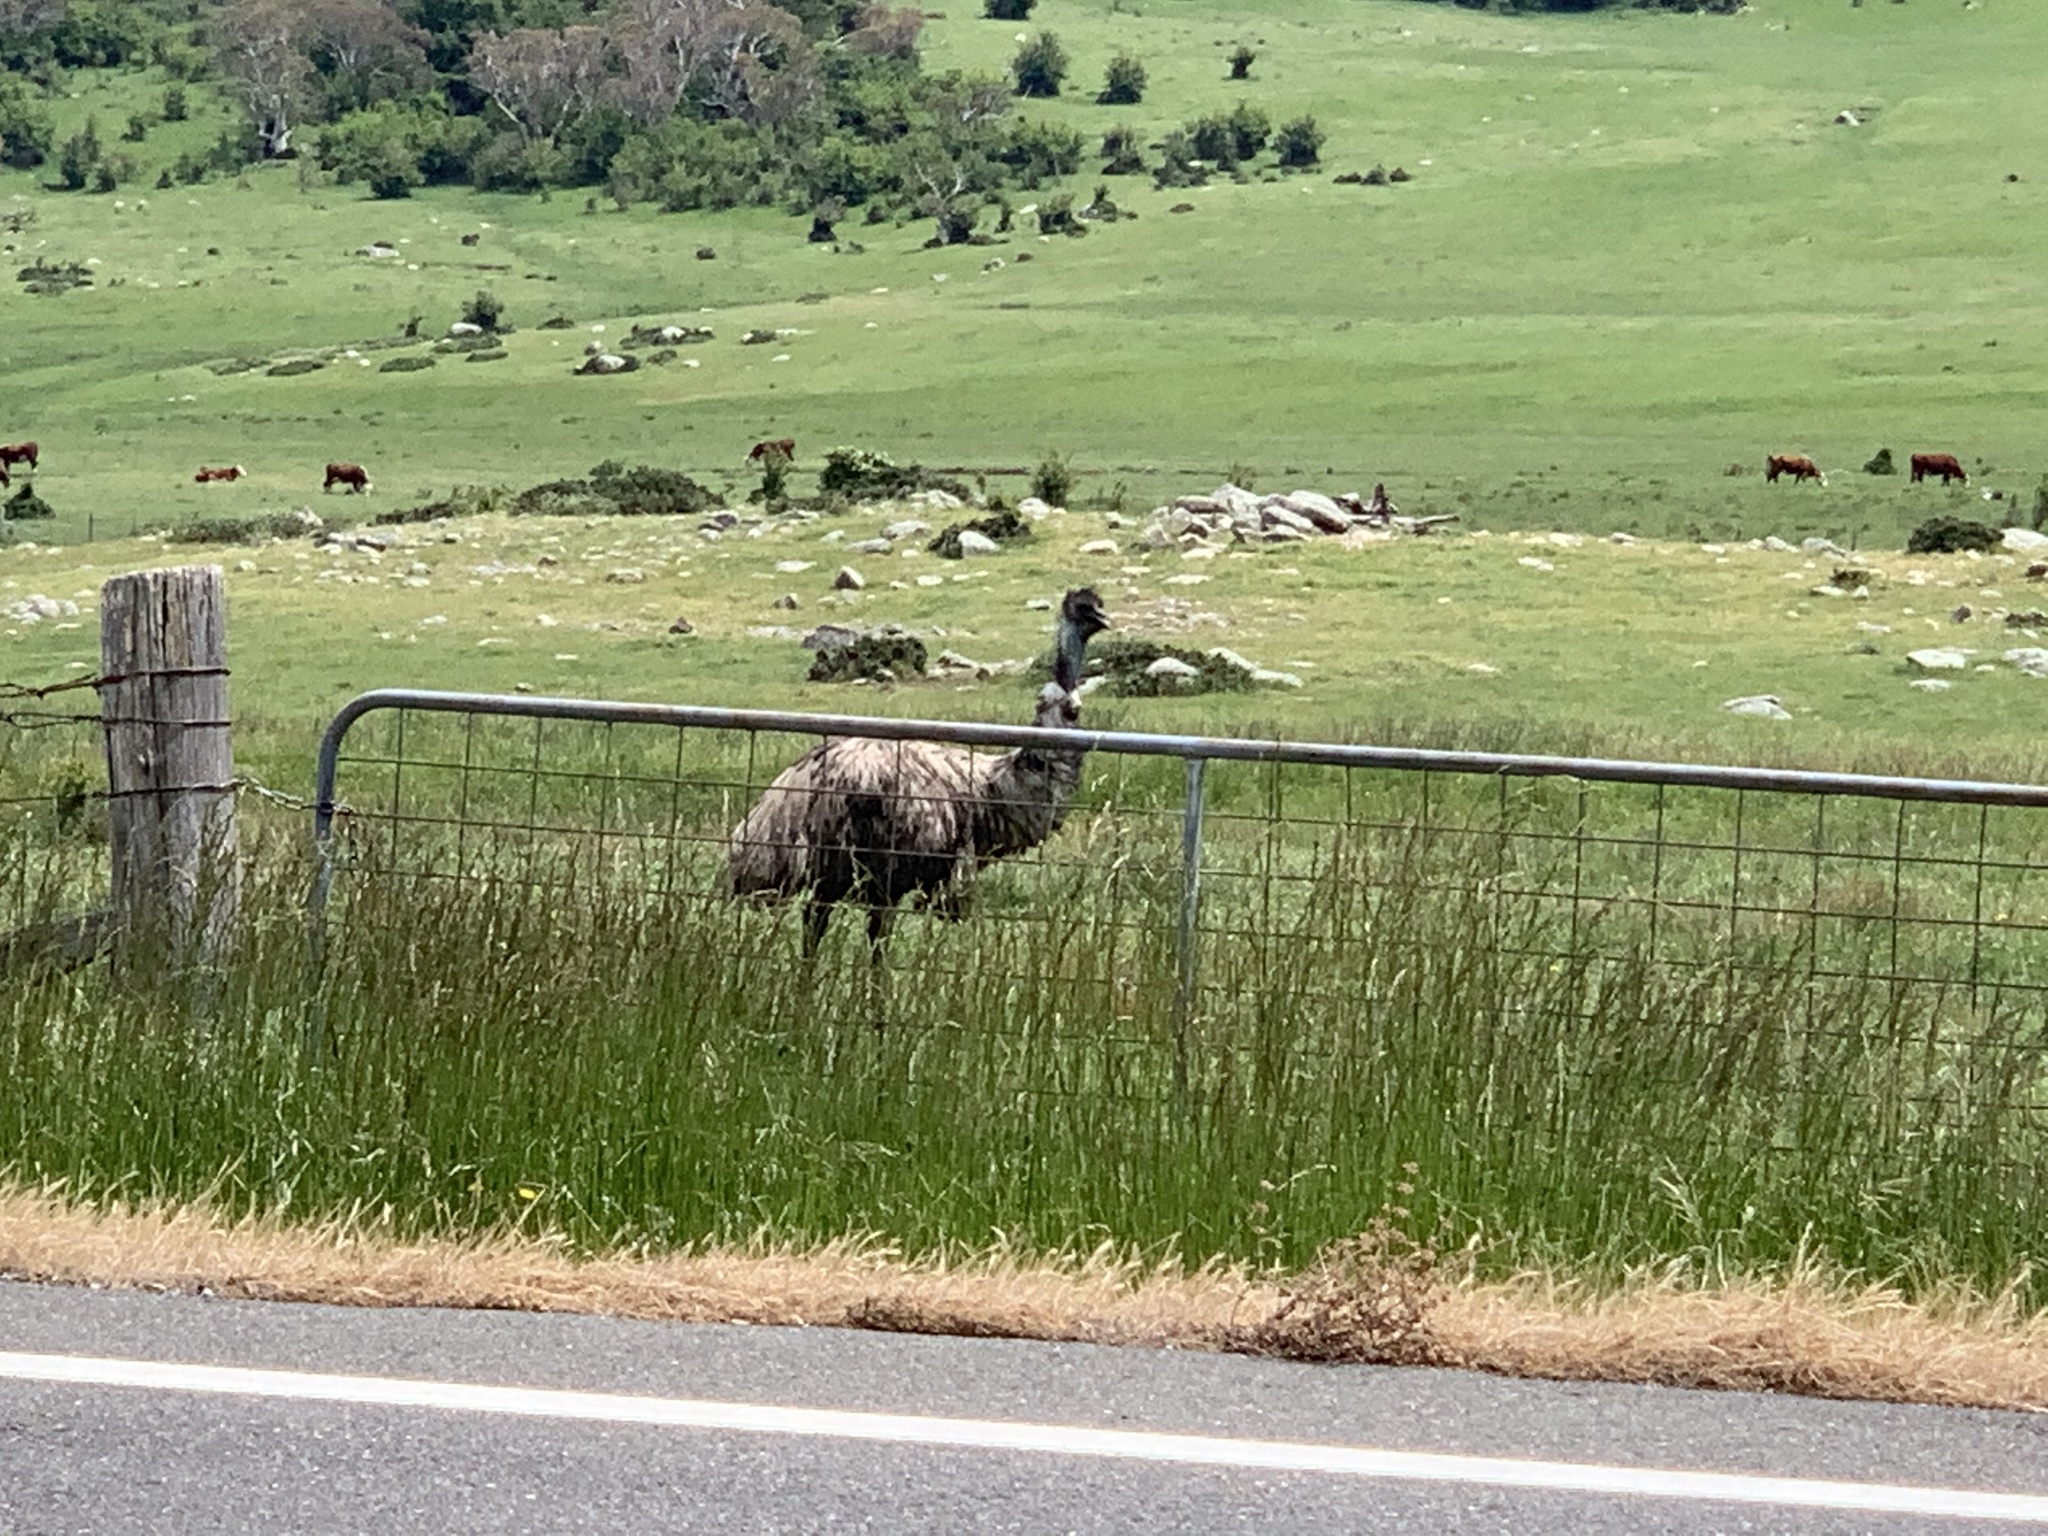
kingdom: Animalia
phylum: Chordata
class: Aves
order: Casuariiformes
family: Dromaiidae
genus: Dromaius
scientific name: Dromaius novaehollandiae
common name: Emu
